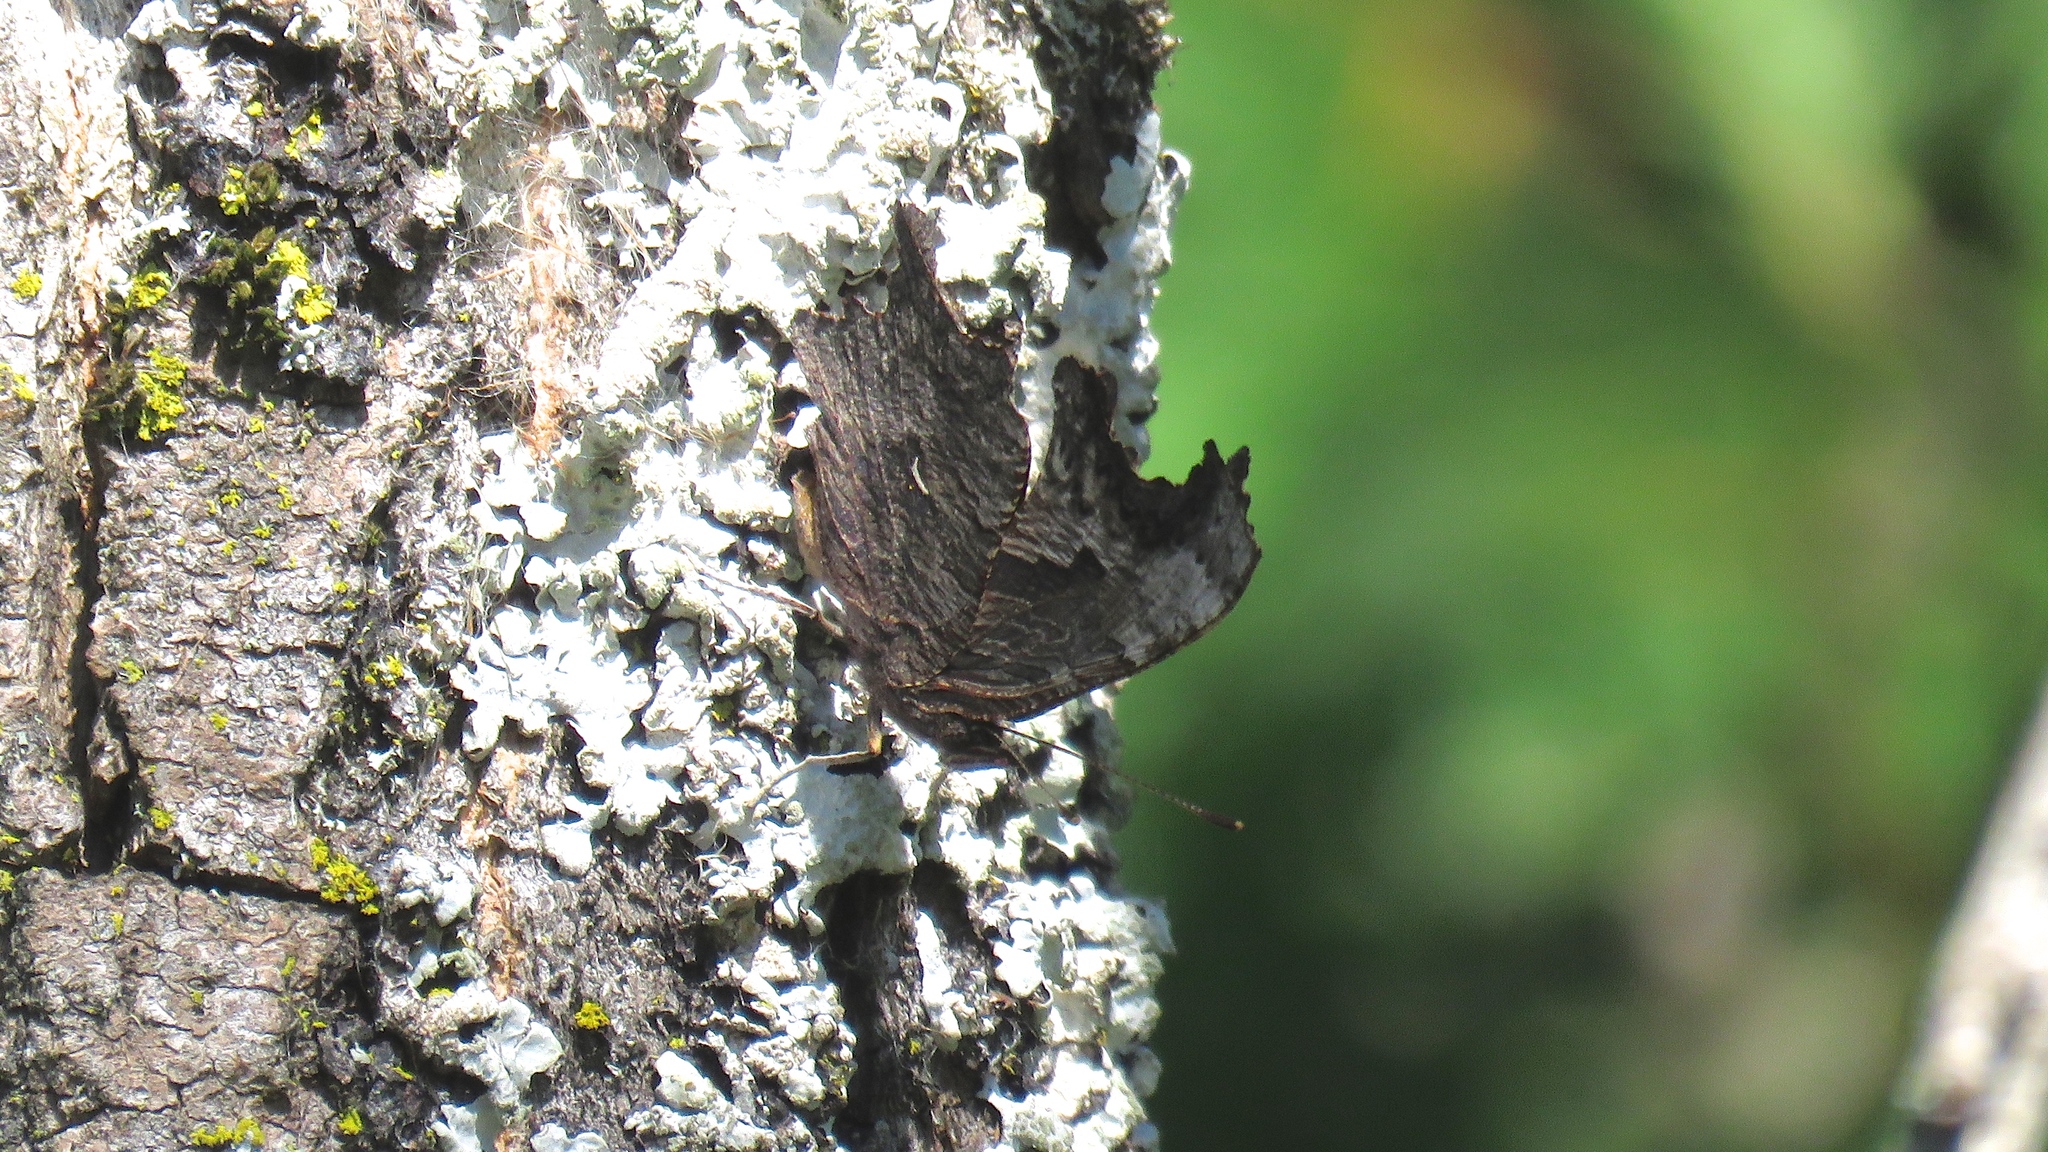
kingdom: Animalia
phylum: Arthropoda
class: Insecta
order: Lepidoptera
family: Nymphalidae
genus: Polygonia
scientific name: Polygonia progne
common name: Gray comma
